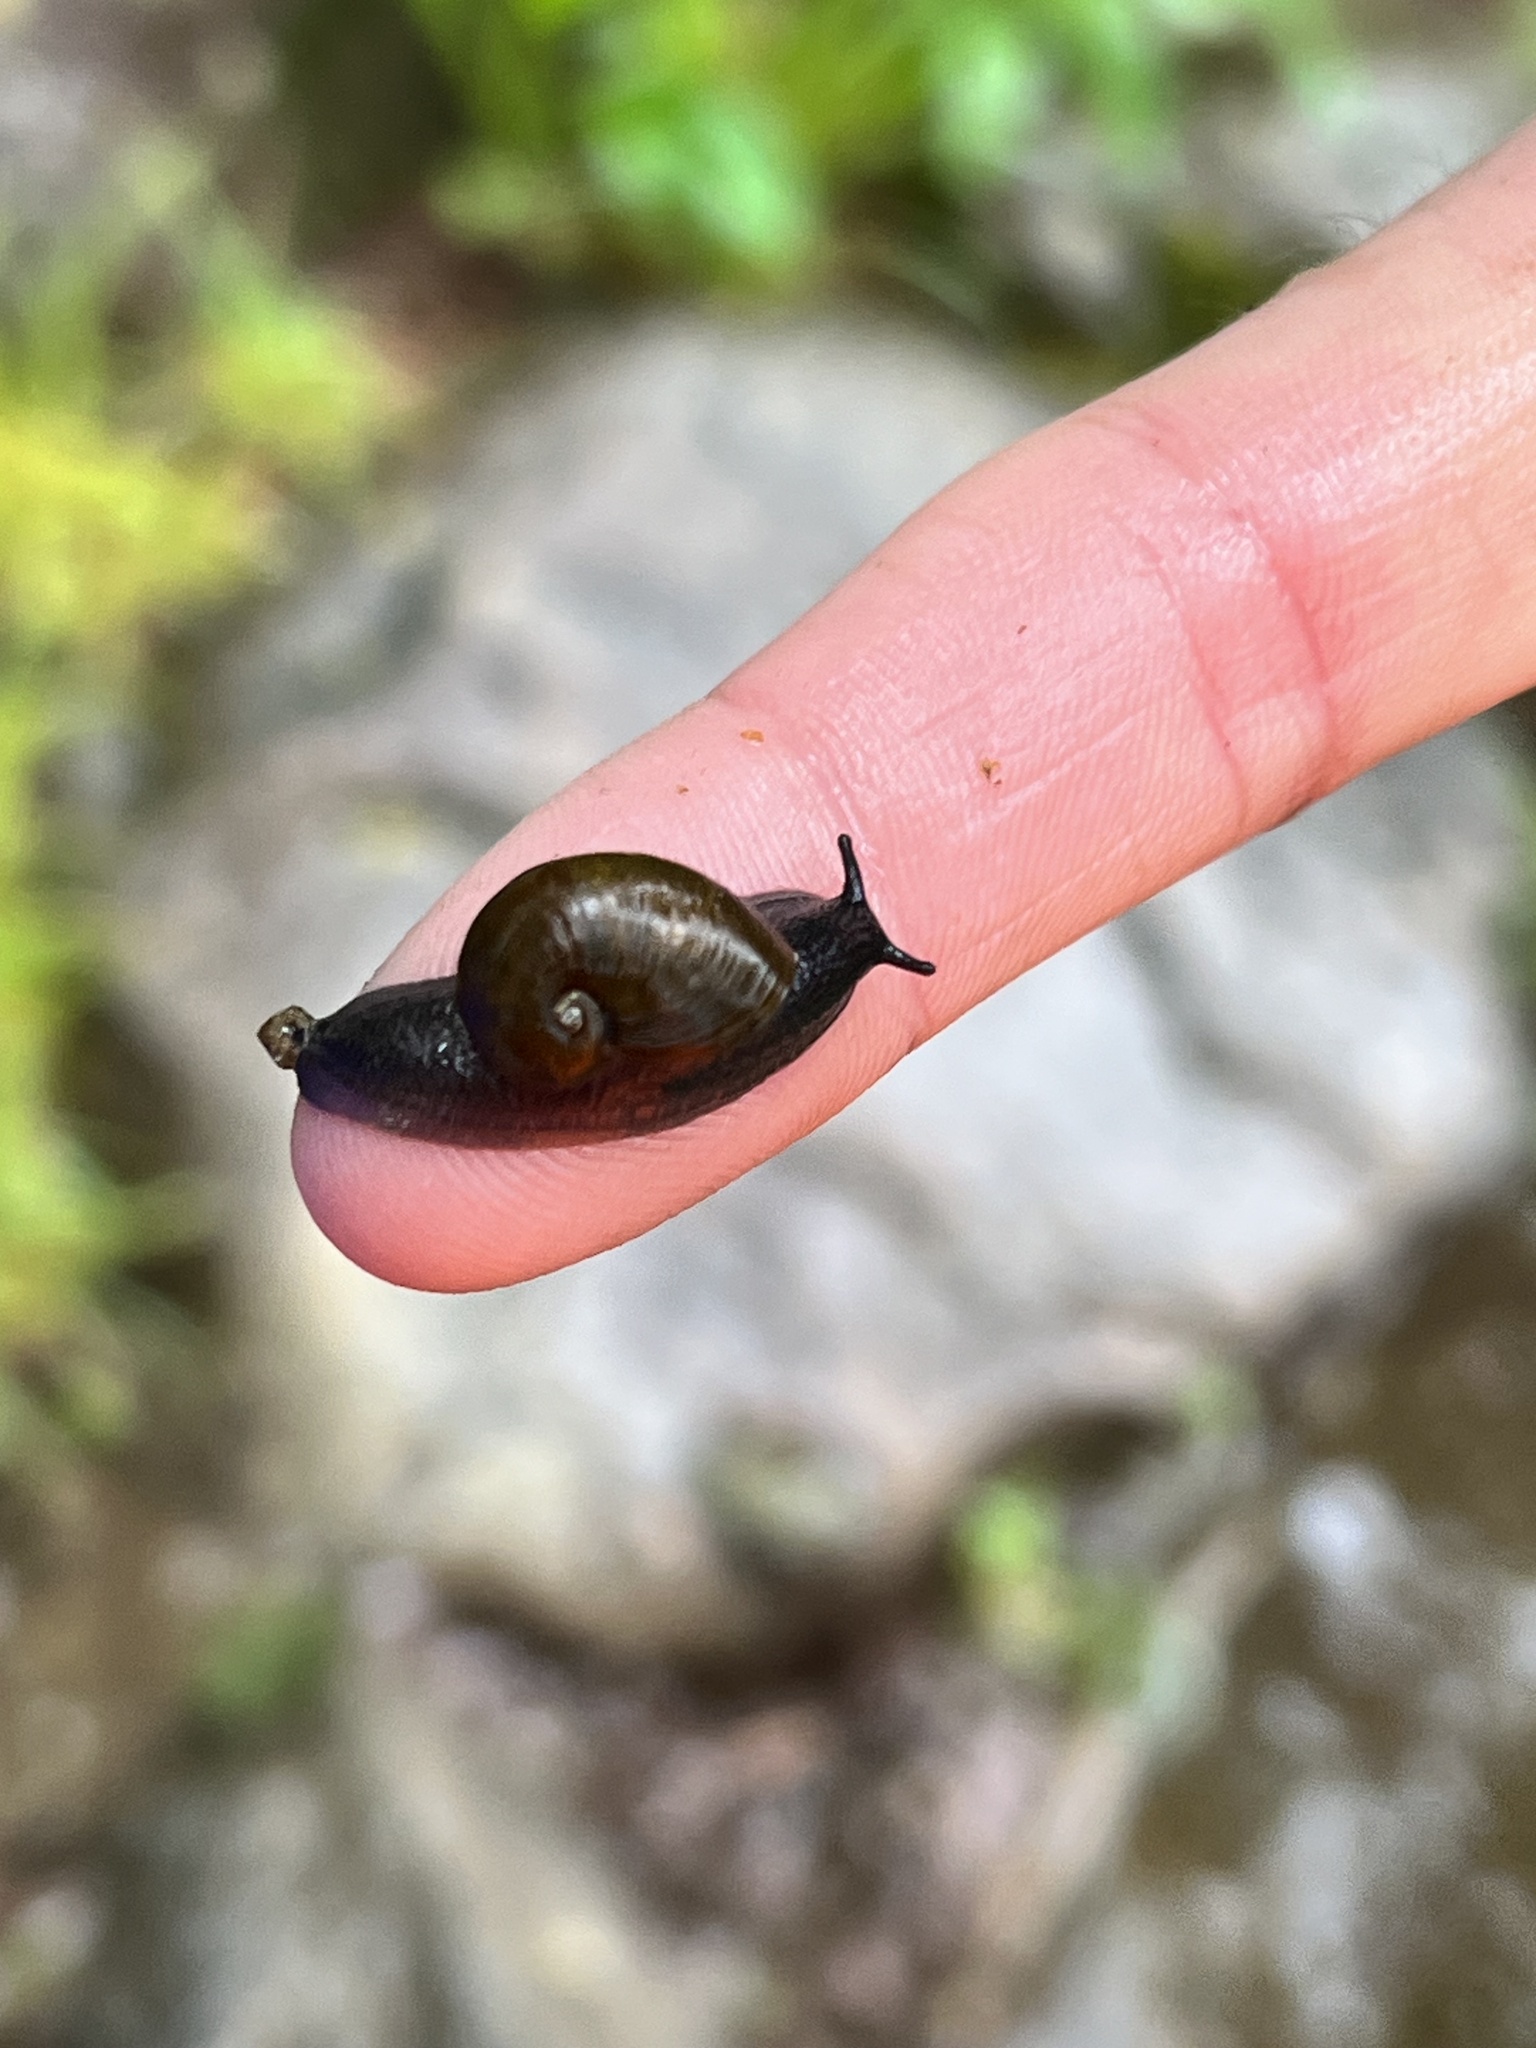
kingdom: Animalia
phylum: Mollusca
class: Gastropoda
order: Stylommatophora
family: Gastrodontidae
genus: Vitrinizonites
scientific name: Vitrinizonites latissimus
